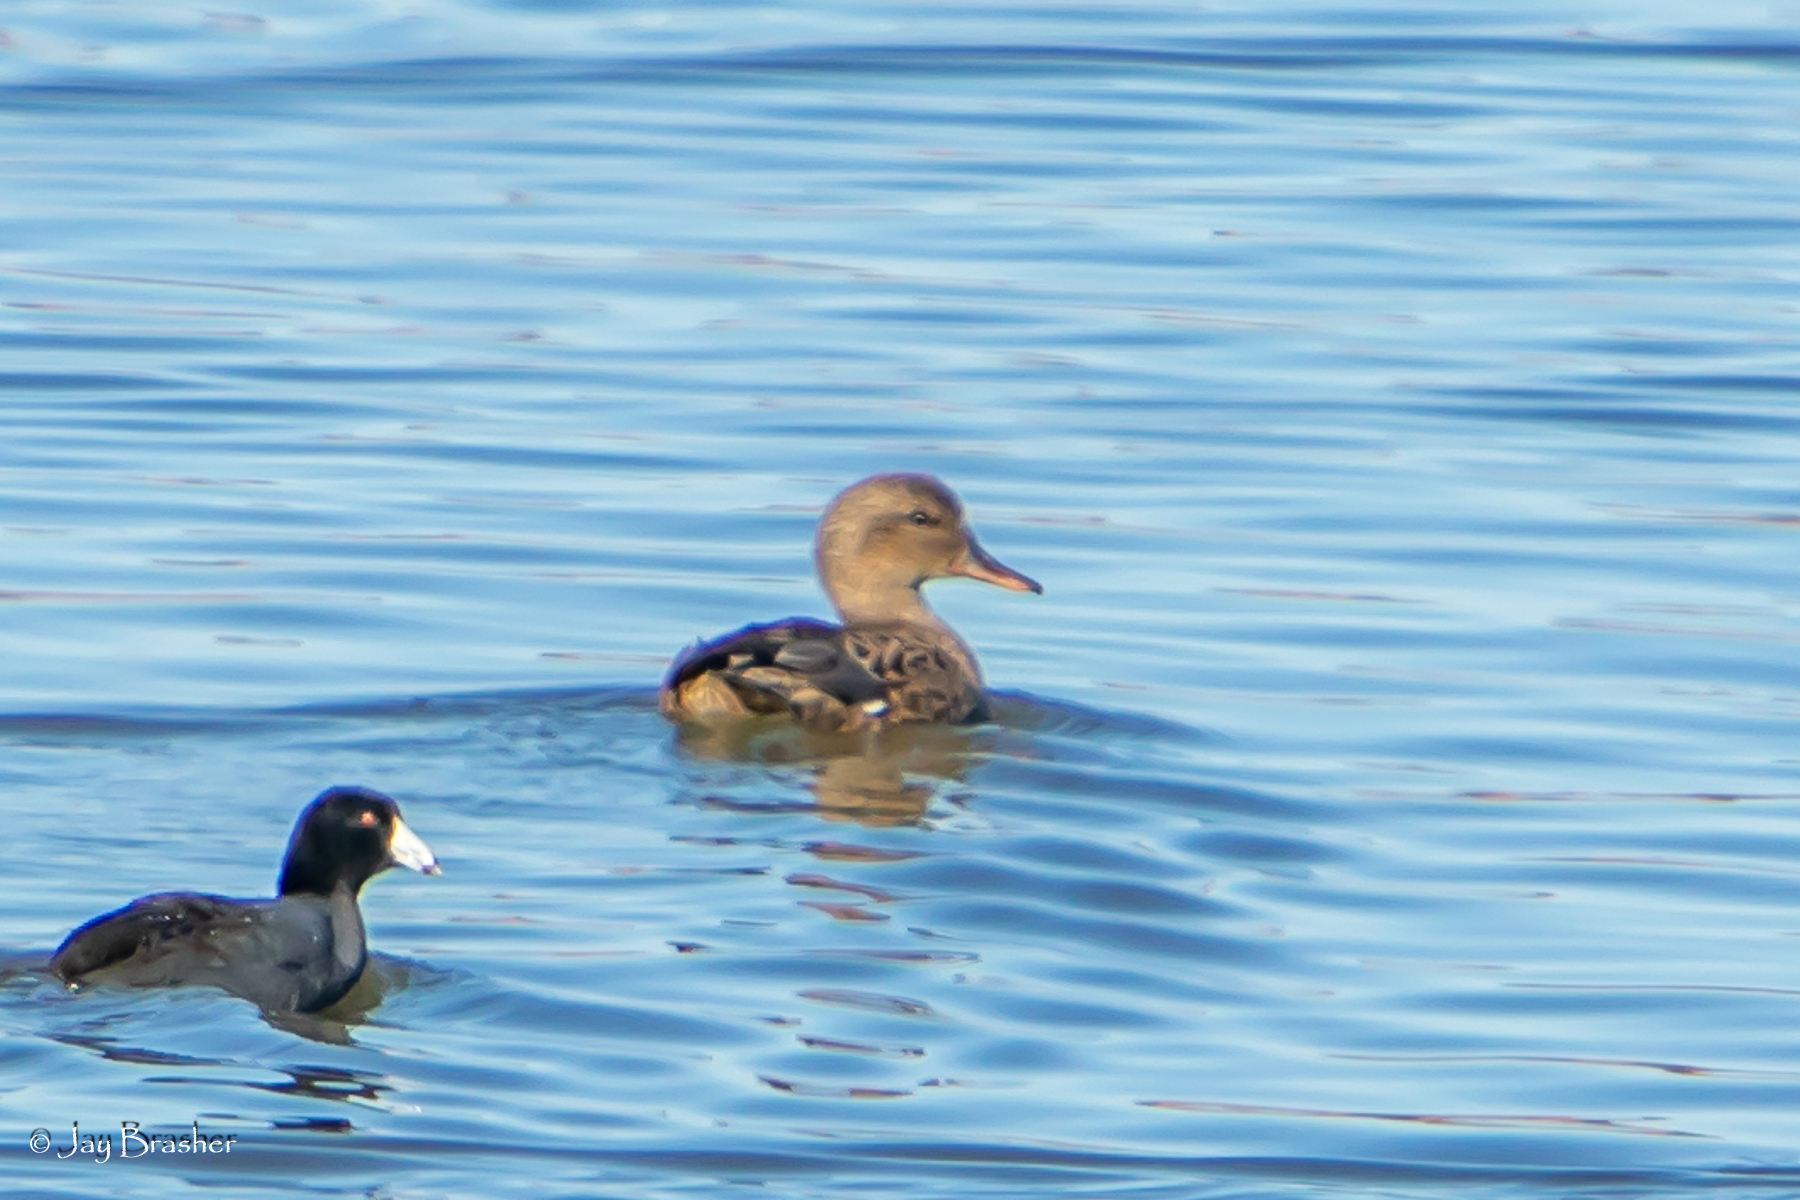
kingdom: Animalia
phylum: Chordata
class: Aves
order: Anseriformes
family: Anatidae
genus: Mareca
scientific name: Mareca strepera
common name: Gadwall
